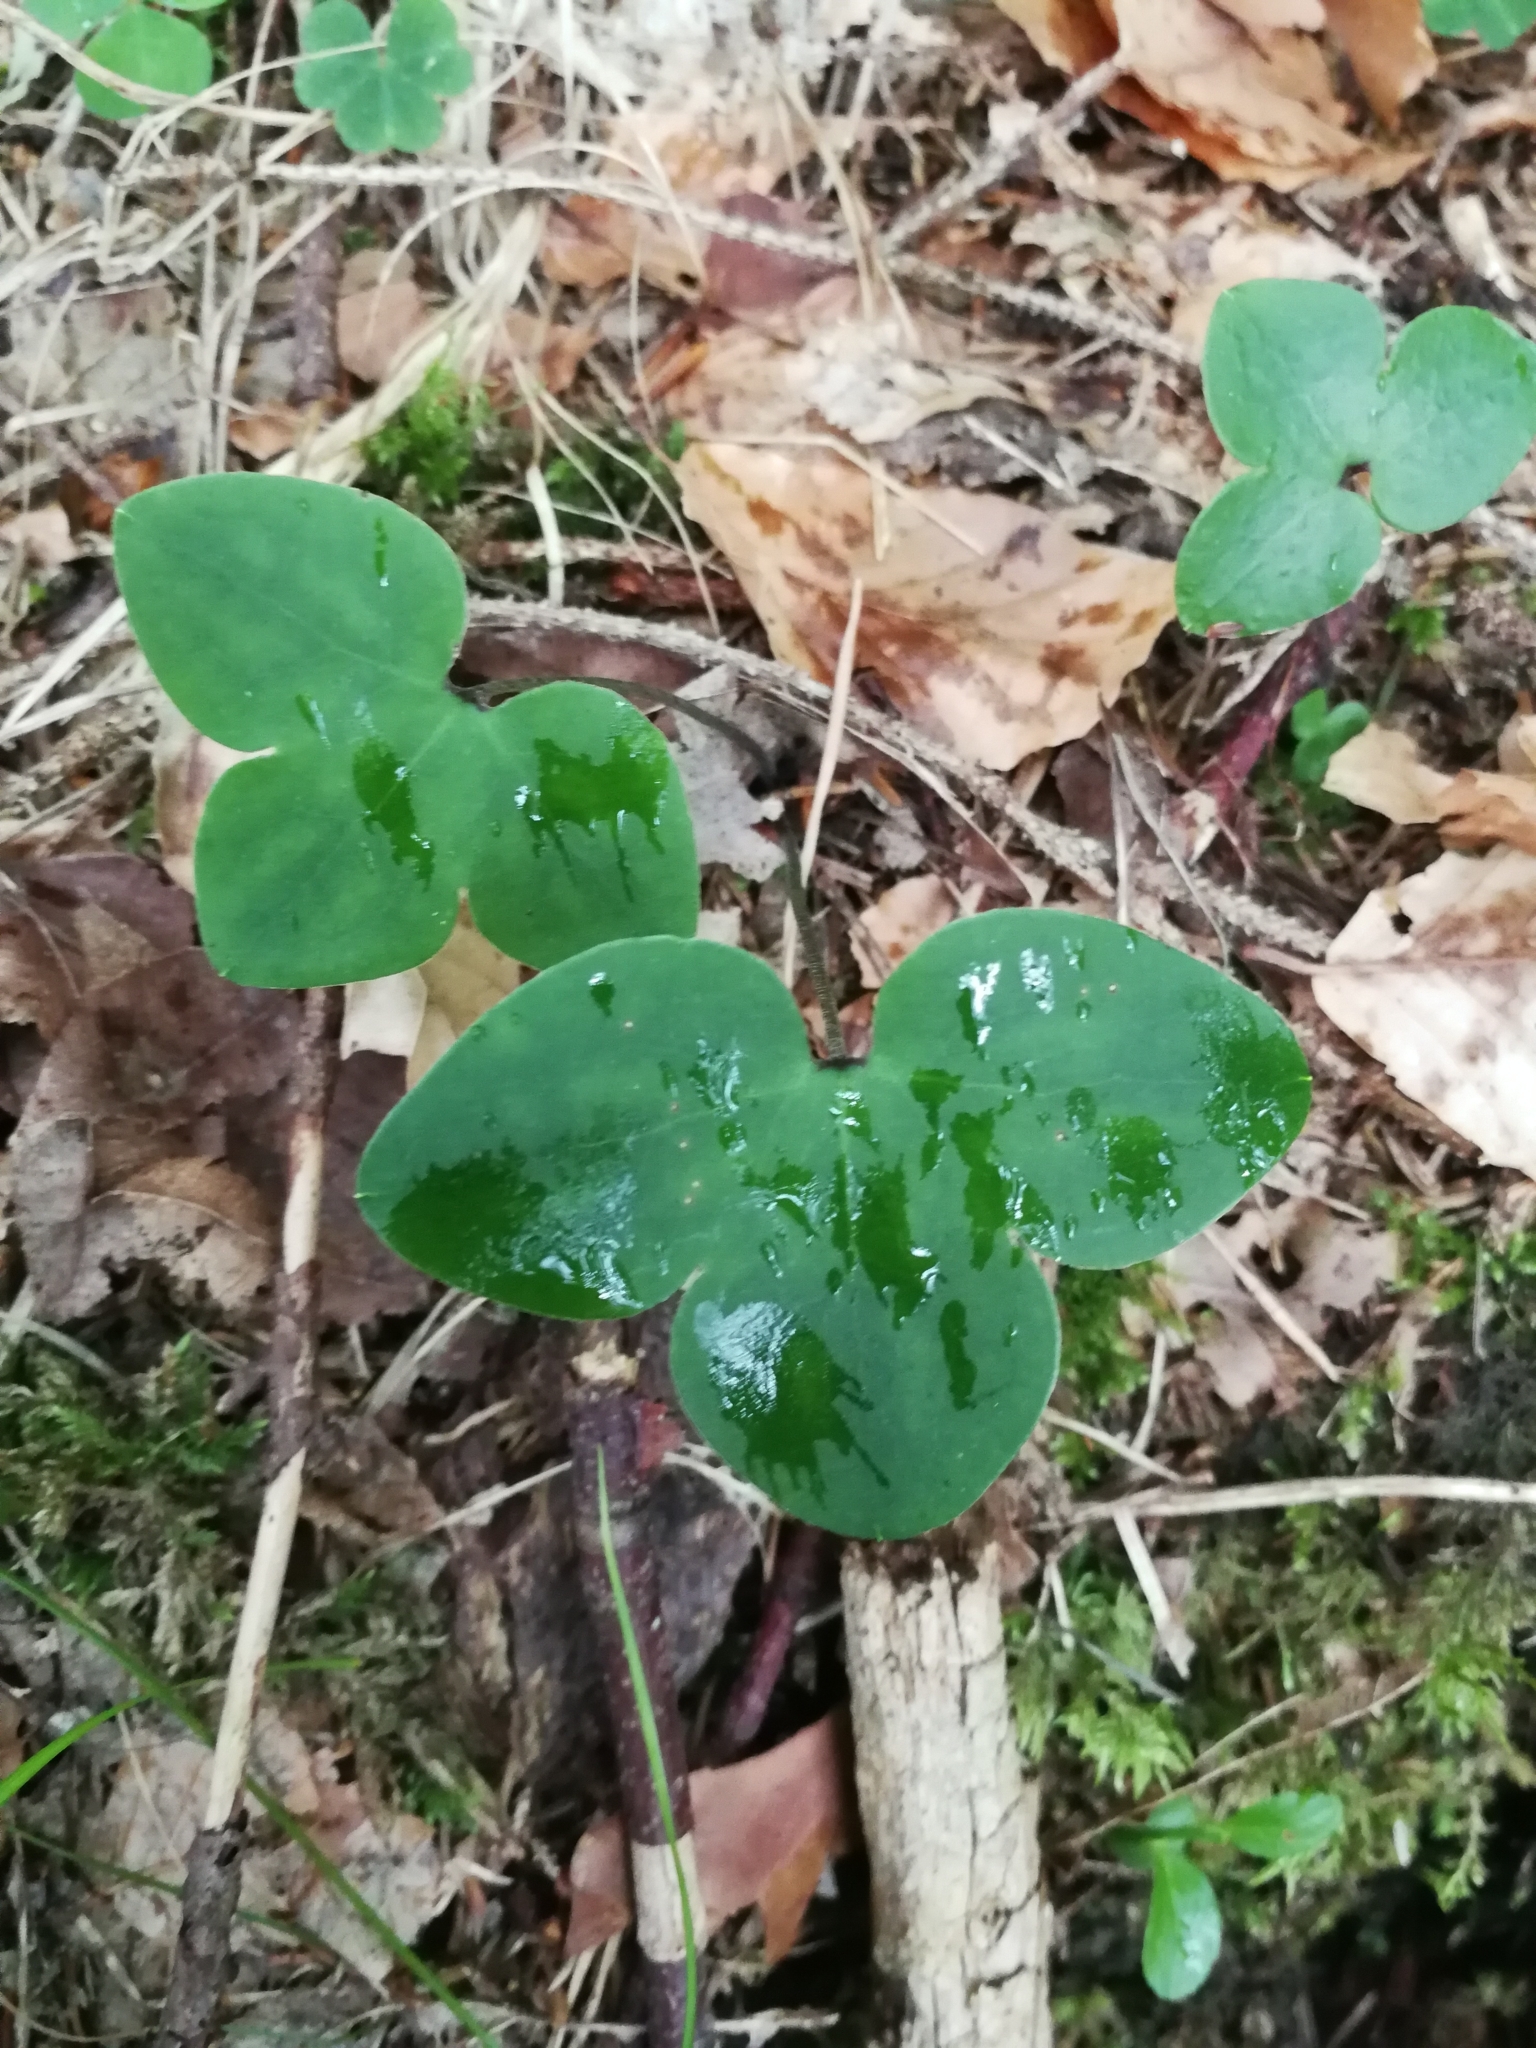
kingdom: Plantae
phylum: Tracheophyta
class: Magnoliopsida
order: Ranunculales
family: Ranunculaceae
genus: Hepatica
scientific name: Hepatica nobilis
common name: Liverleaf
